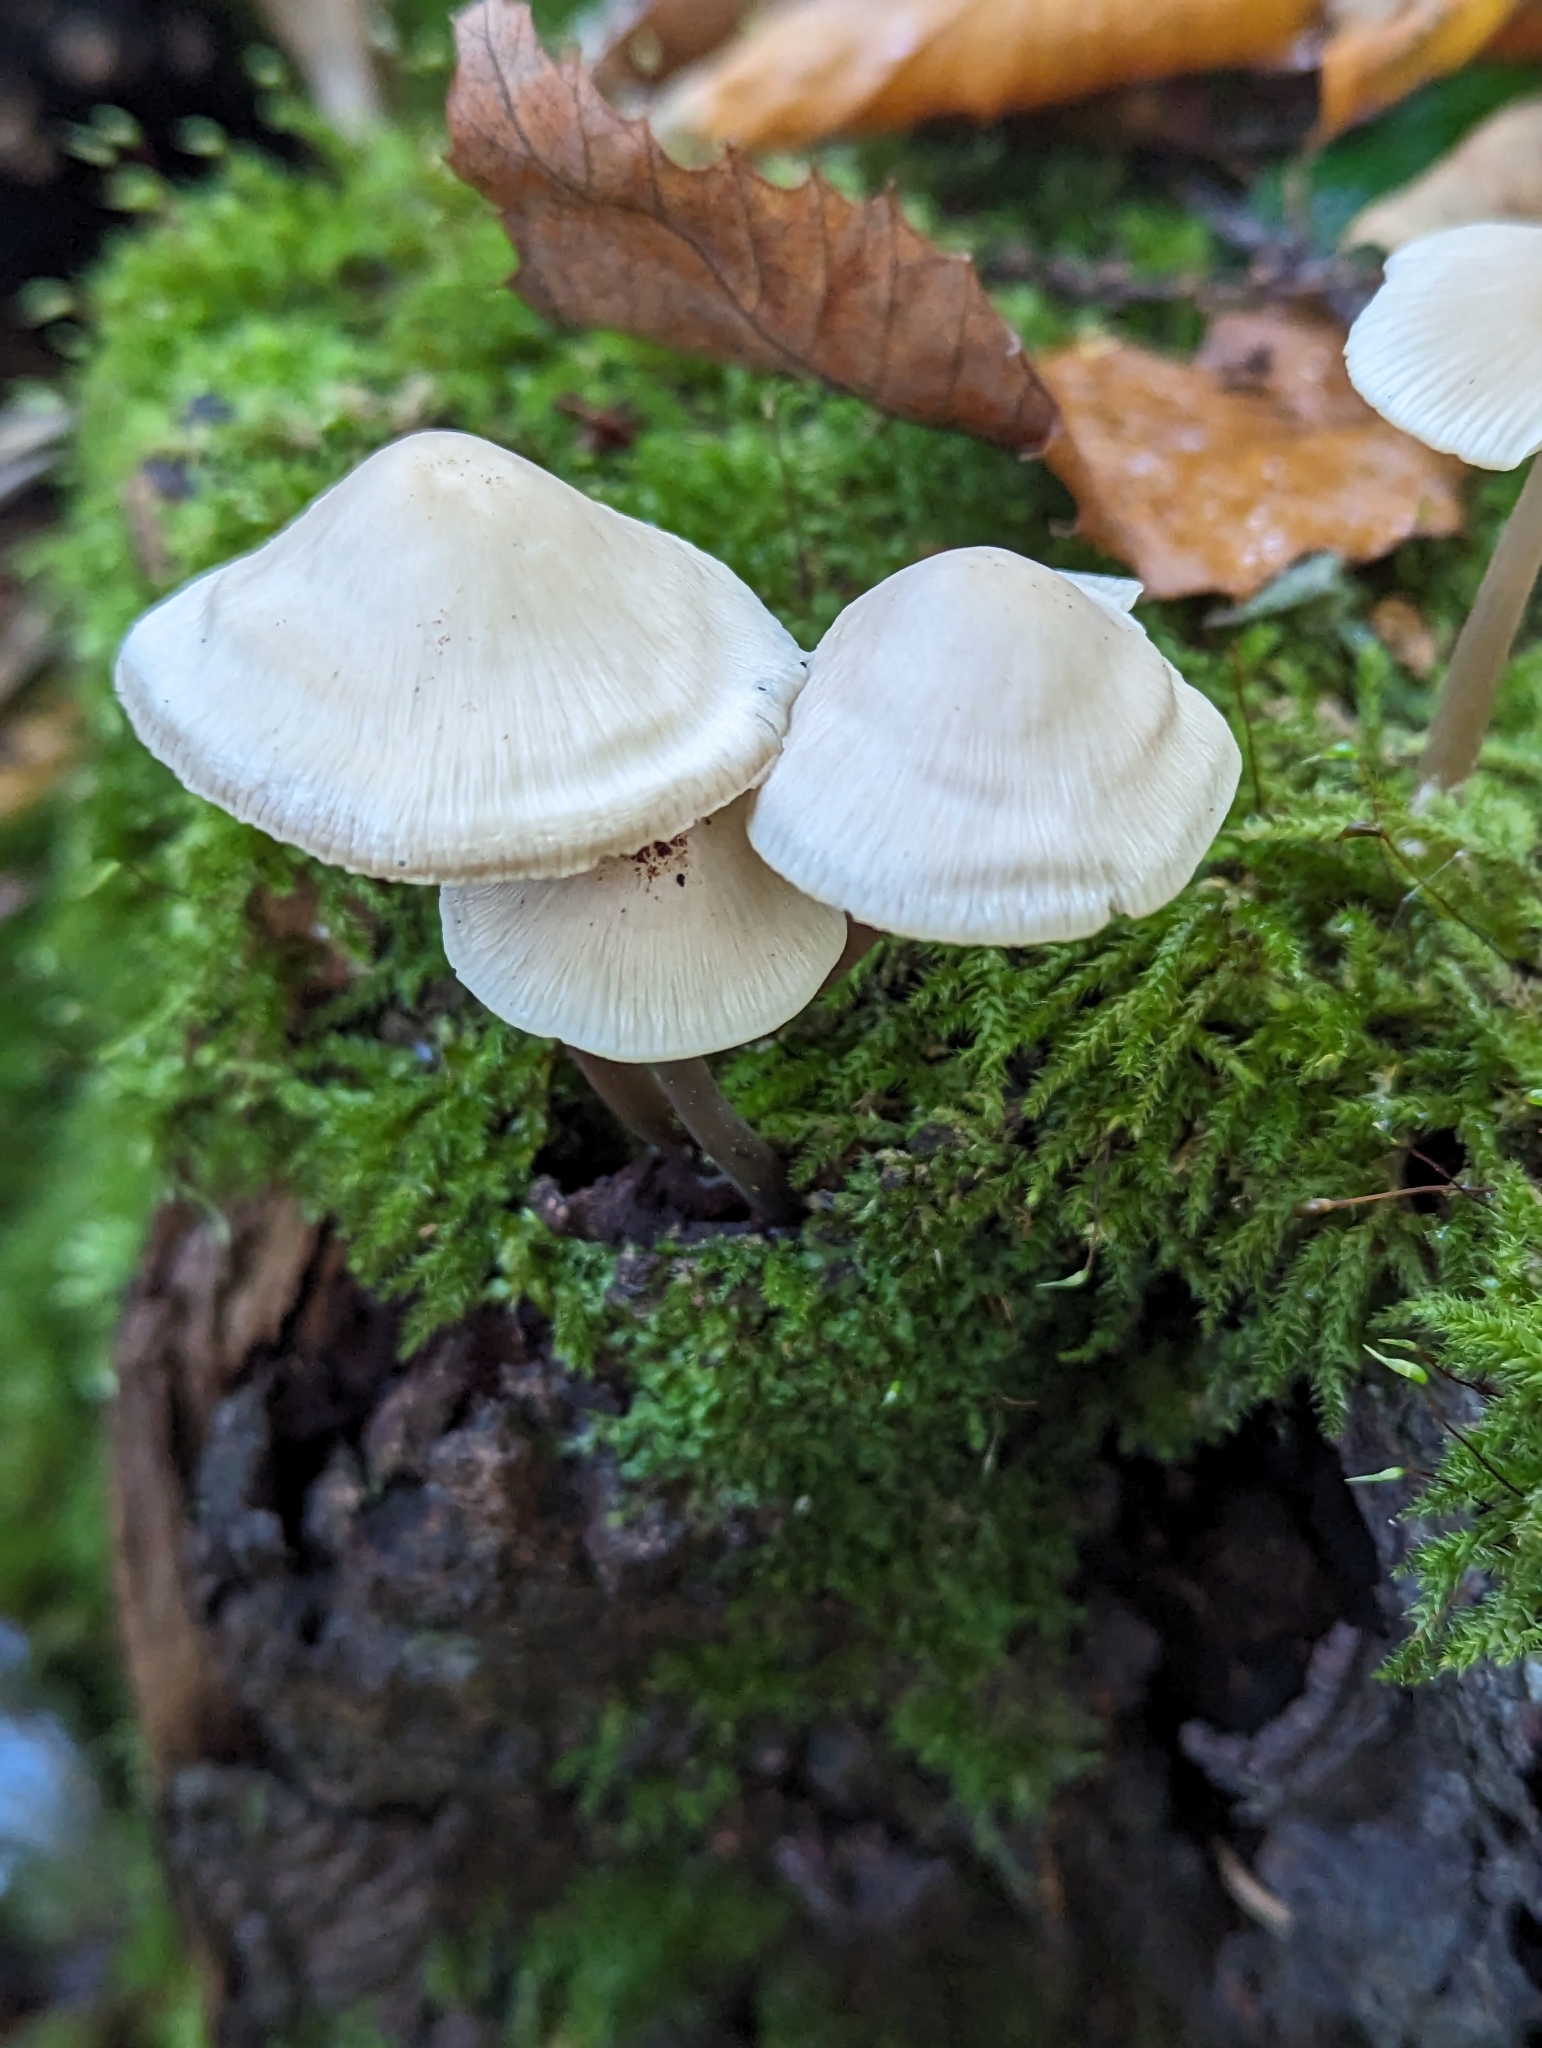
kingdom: Fungi
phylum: Basidiomycota
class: Agaricomycetes
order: Agaricales
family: Mycenaceae
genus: Mycena
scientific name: Mycena galericulata
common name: Bonnet mycena
